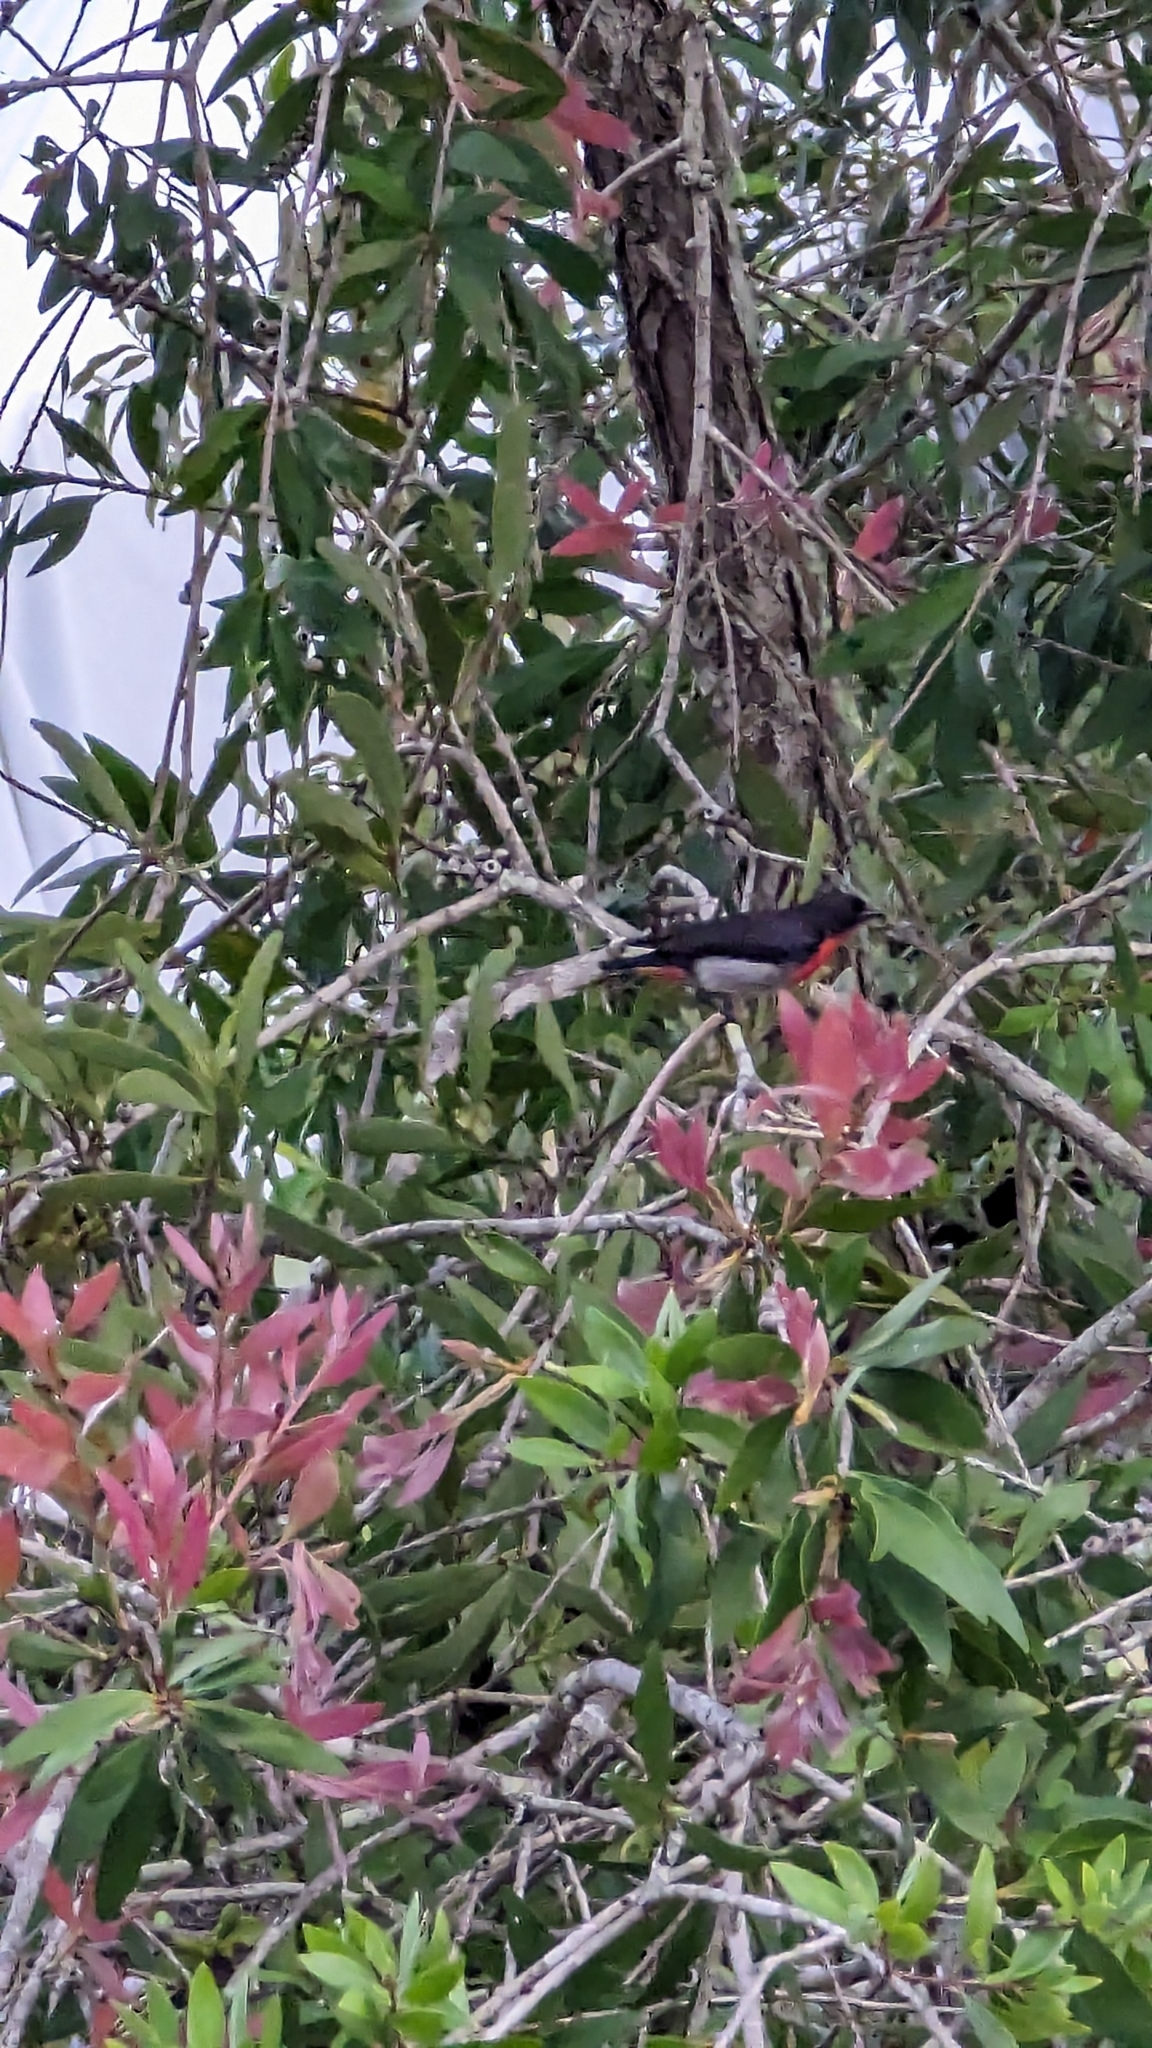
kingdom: Animalia
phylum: Chordata
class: Aves
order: Passeriformes
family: Dicaeidae
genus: Dicaeum
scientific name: Dicaeum hirundinaceum
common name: Mistletoebird
